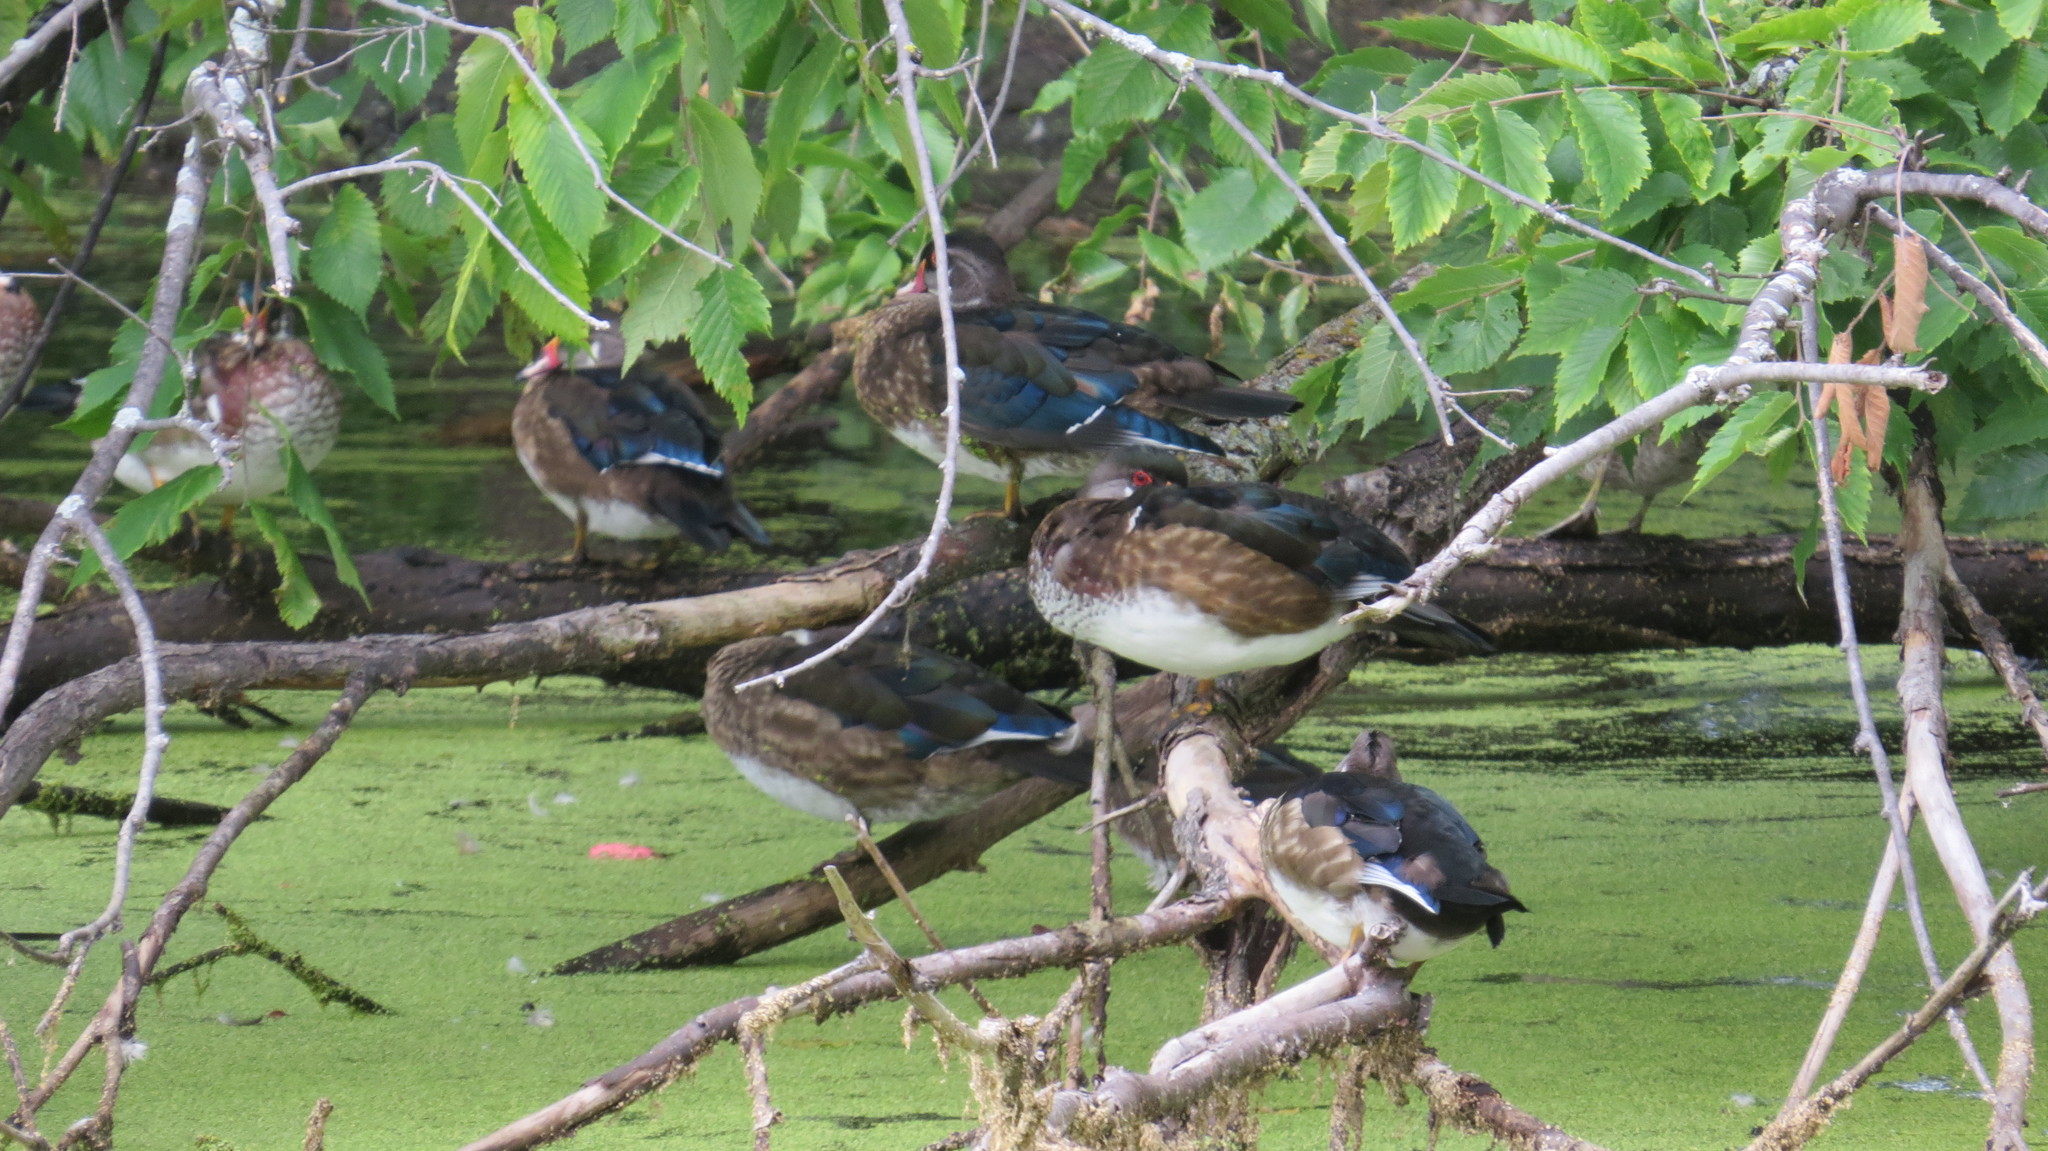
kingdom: Animalia
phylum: Chordata
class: Aves
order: Anseriformes
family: Anatidae
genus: Aix
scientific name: Aix sponsa
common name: Wood duck
